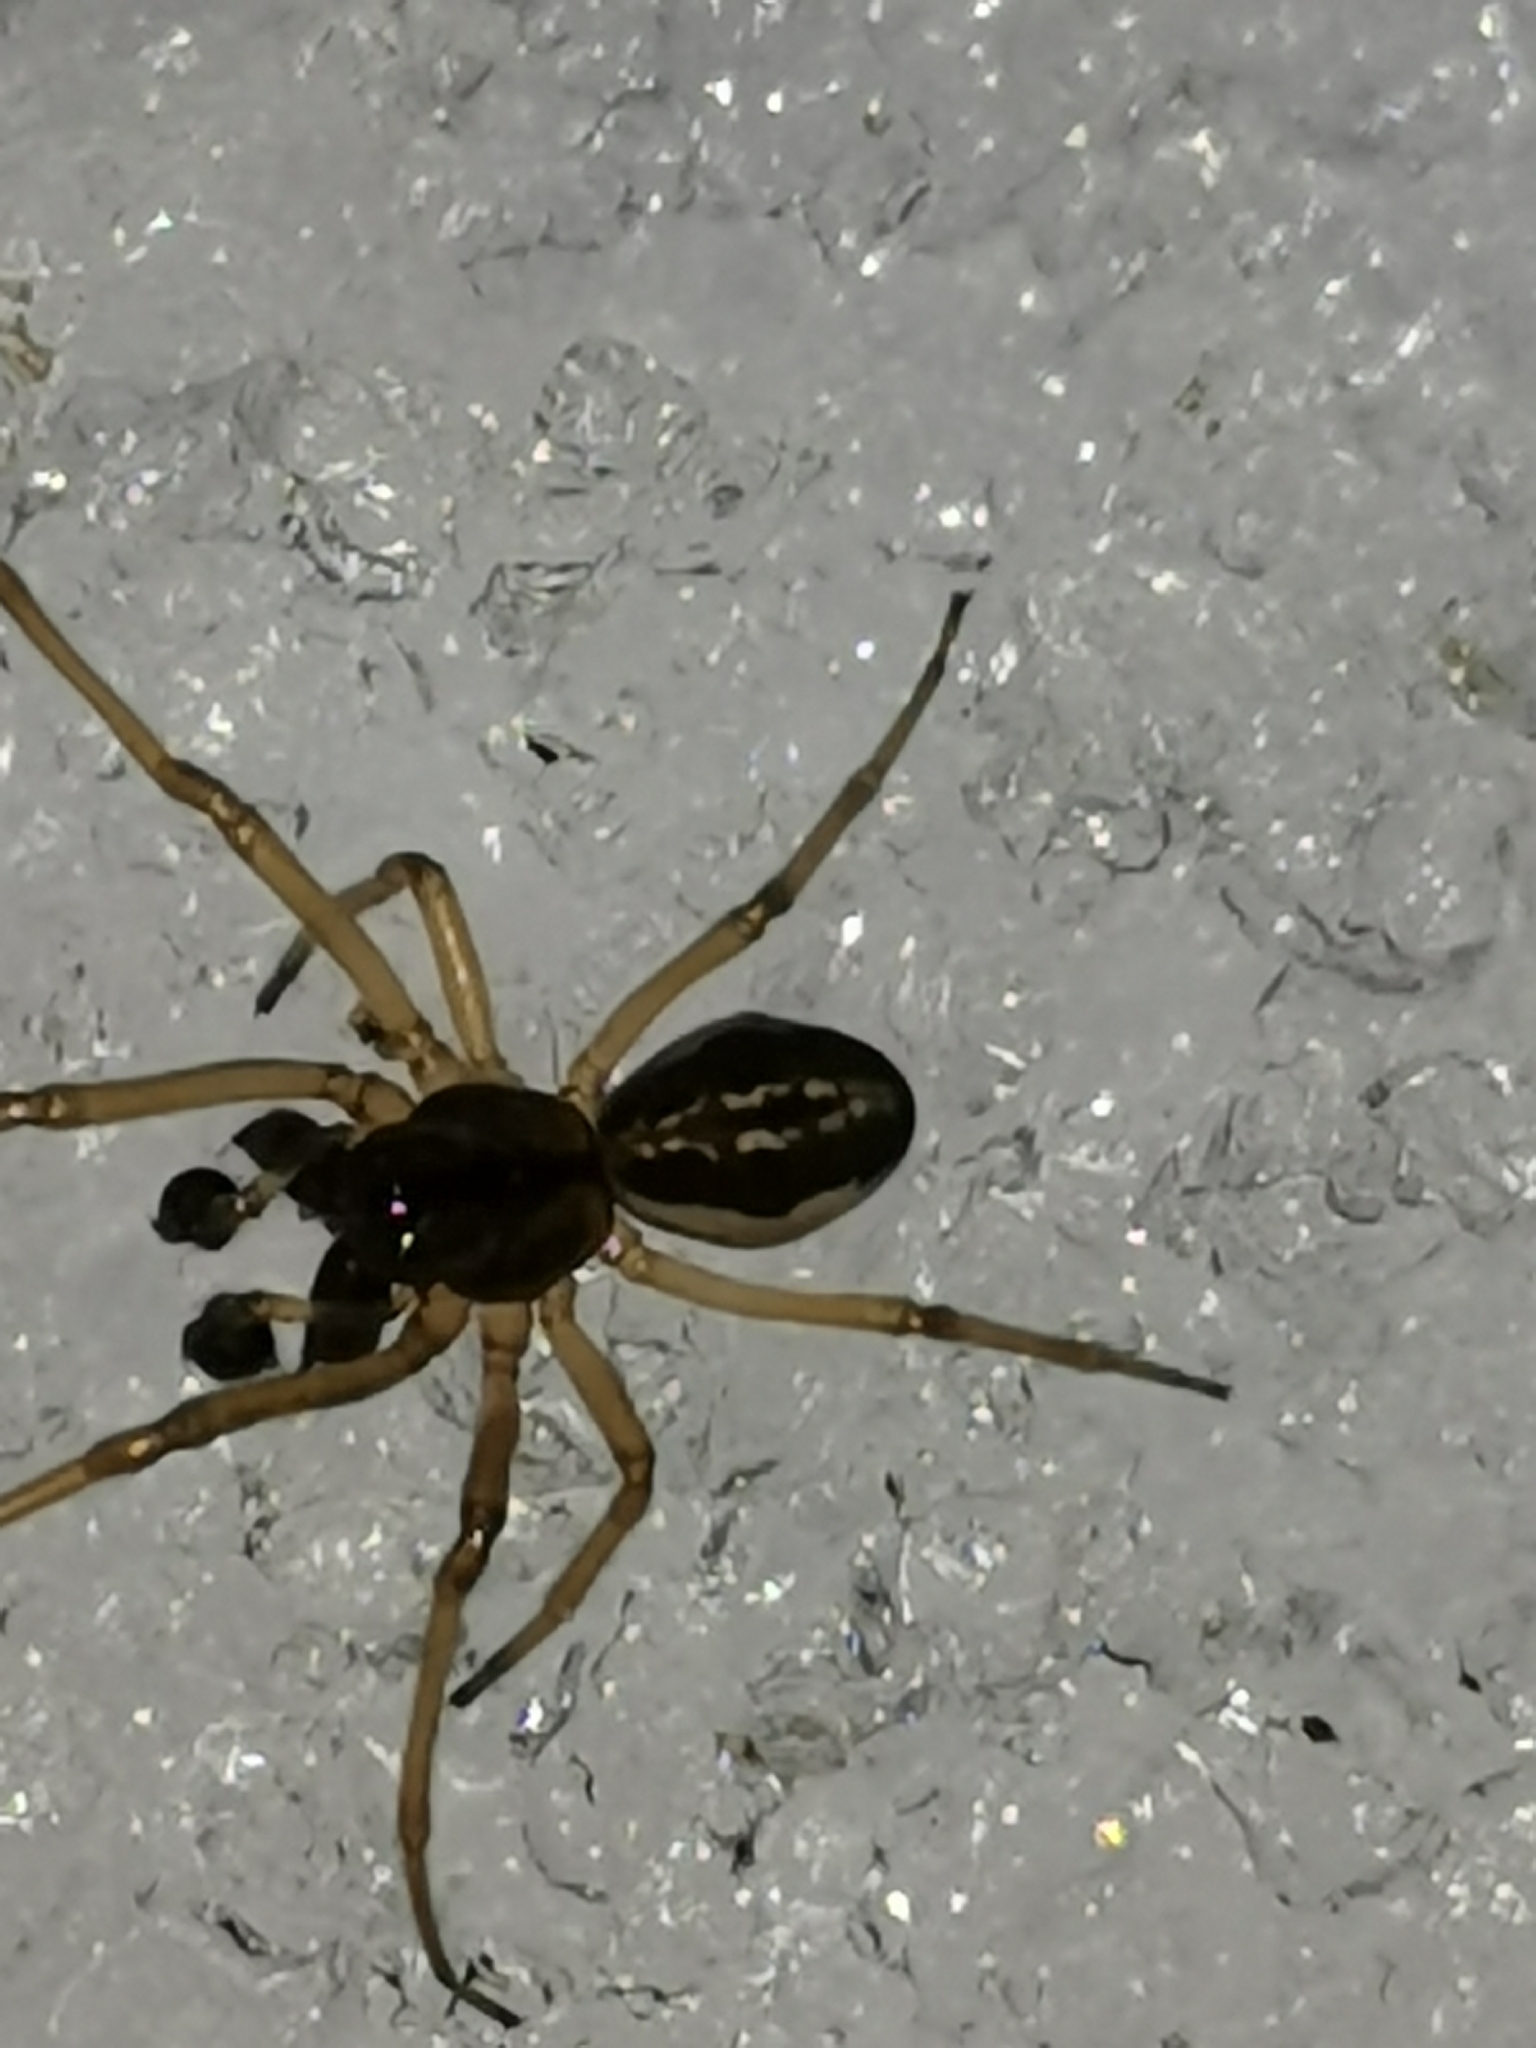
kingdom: Animalia
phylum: Arthropoda
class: Arachnida
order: Araneae
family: Tetragnathidae
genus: Pachygnatha
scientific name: Pachygnatha degeeri
